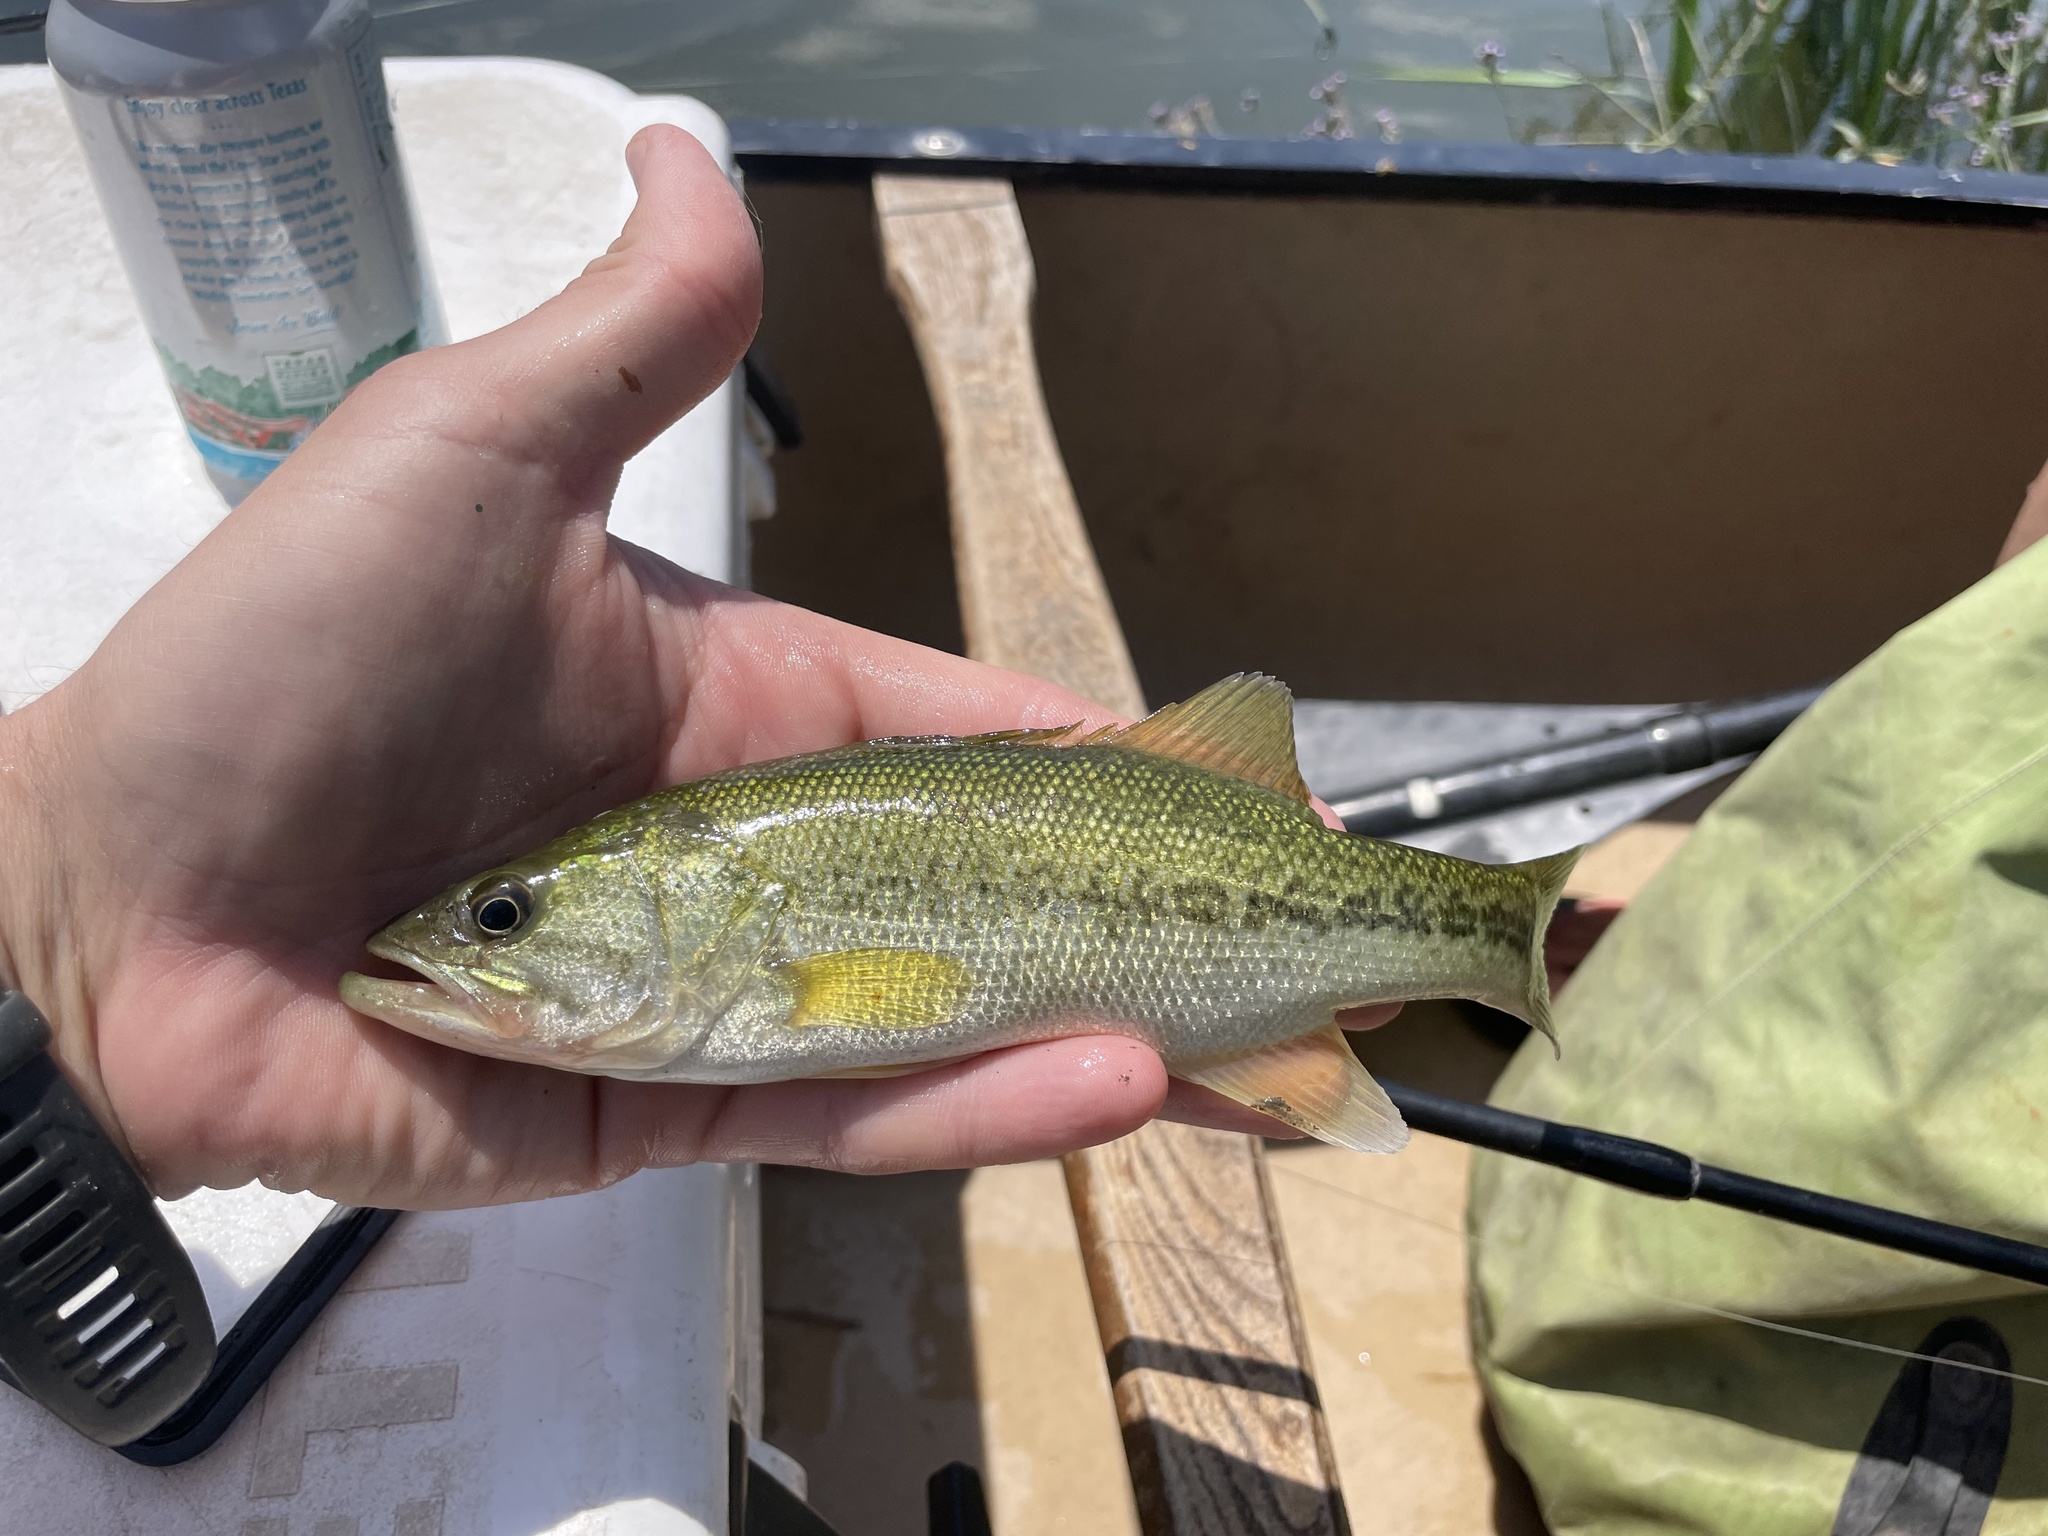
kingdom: Animalia
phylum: Chordata
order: Perciformes
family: Centrarchidae
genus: Micropterus
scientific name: Micropterus
